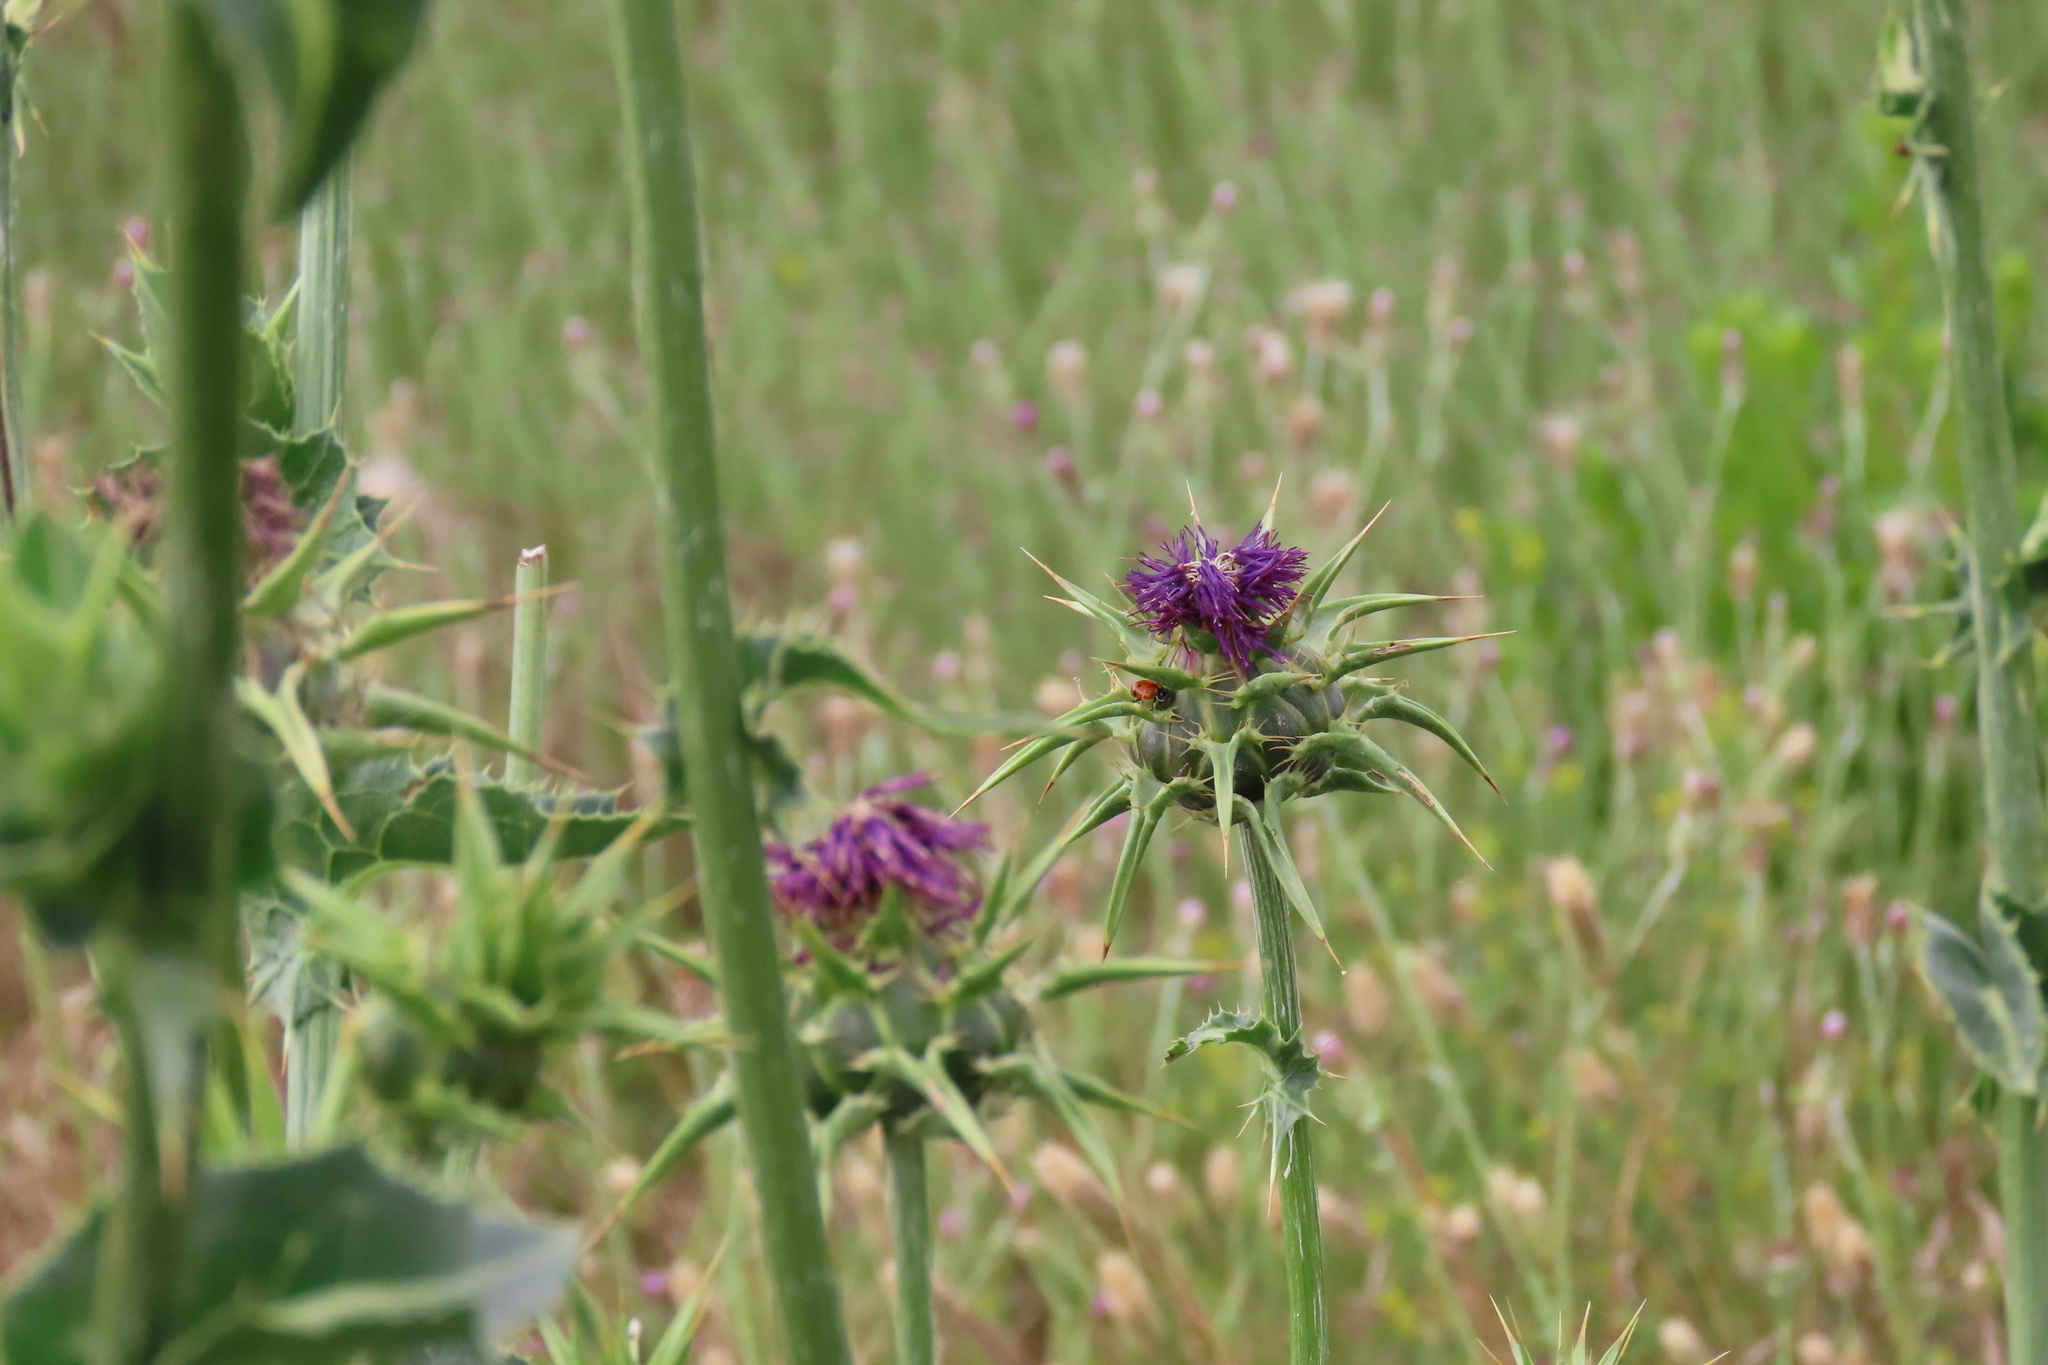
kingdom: Plantae
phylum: Tracheophyta
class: Magnoliopsida
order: Asterales
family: Asteraceae
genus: Silybum
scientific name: Silybum marianum
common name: Milk thistle
